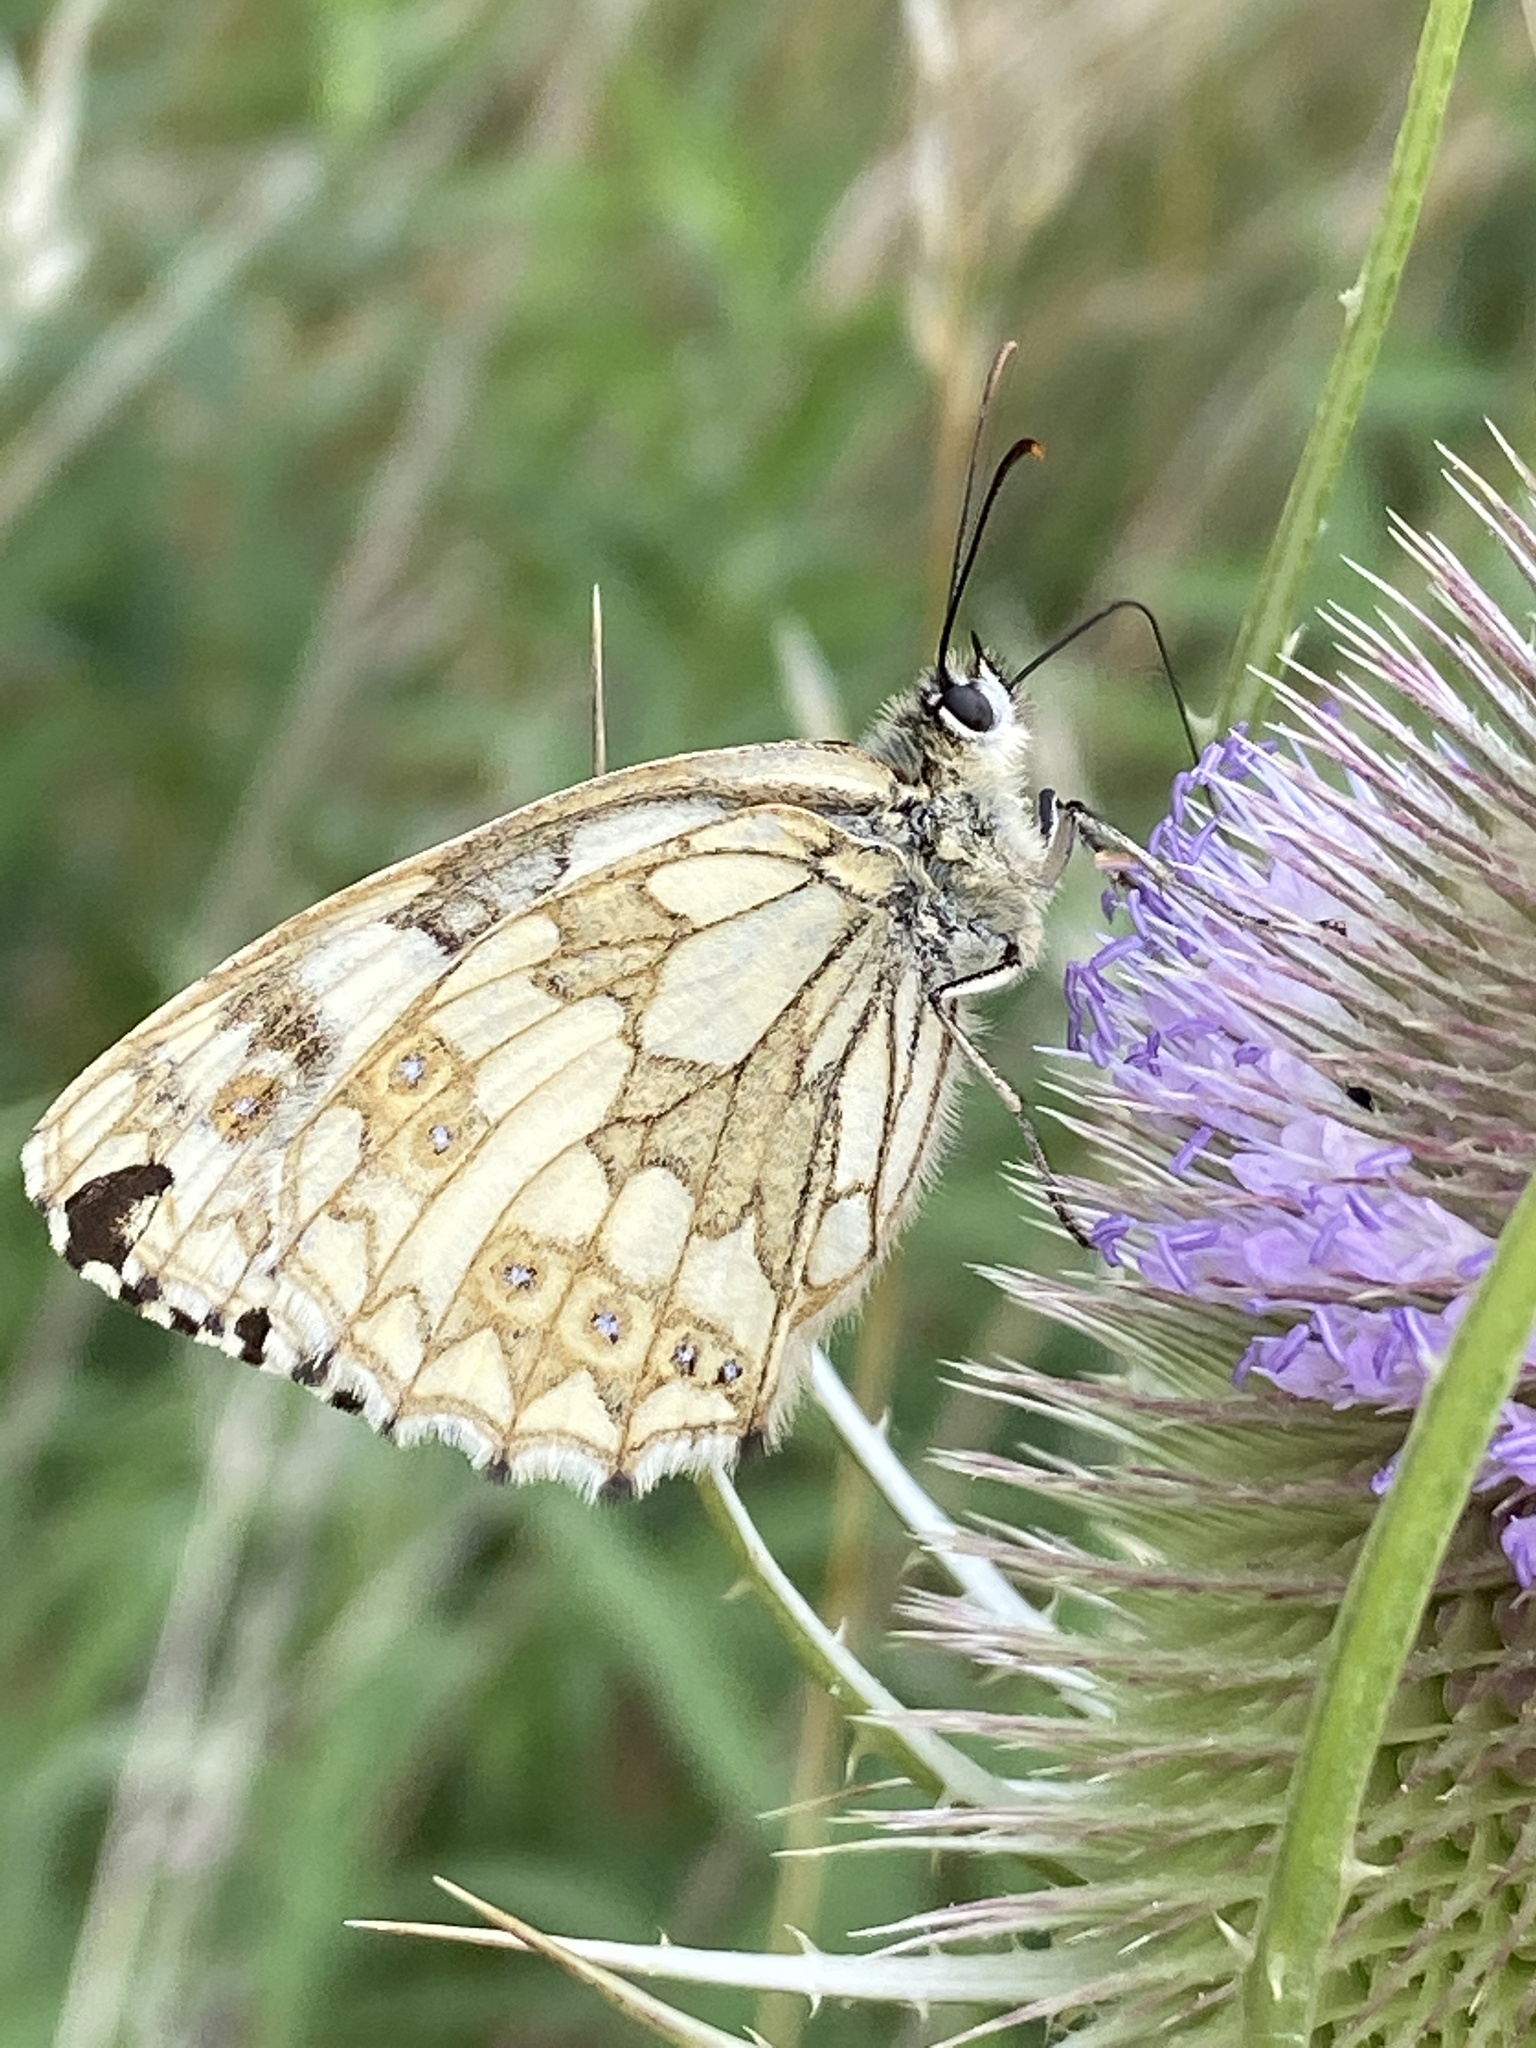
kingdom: Animalia
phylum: Arthropoda
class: Insecta
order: Lepidoptera
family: Nymphalidae
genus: Melanargia
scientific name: Melanargia galathea
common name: Marbled white
